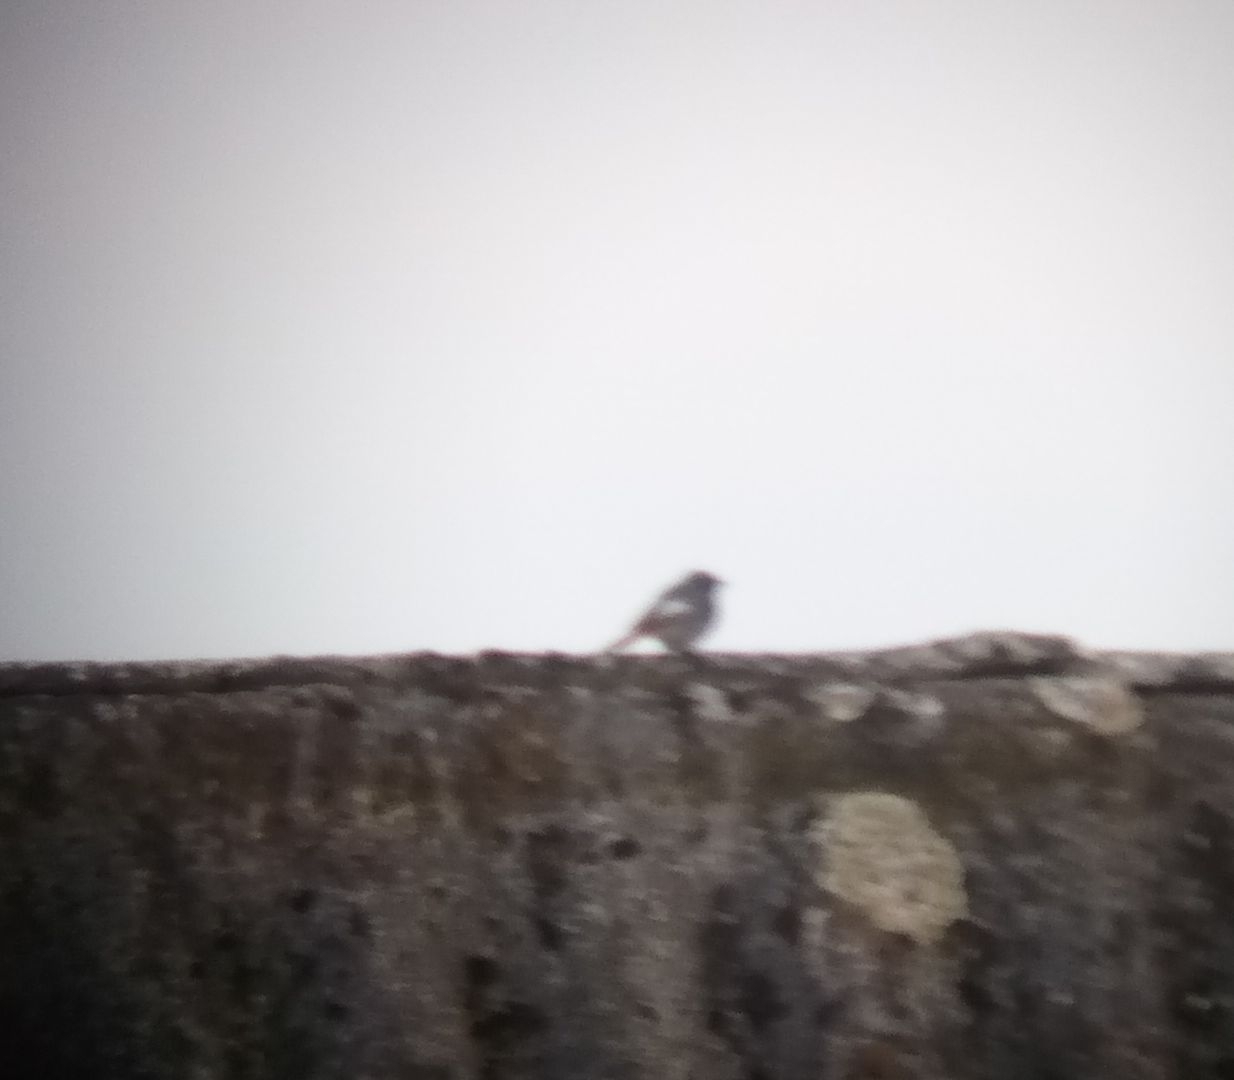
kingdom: Animalia
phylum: Chordata
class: Aves
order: Passeriformes
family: Muscicapidae
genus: Phoenicurus
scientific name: Phoenicurus ochruros
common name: Black redstart
